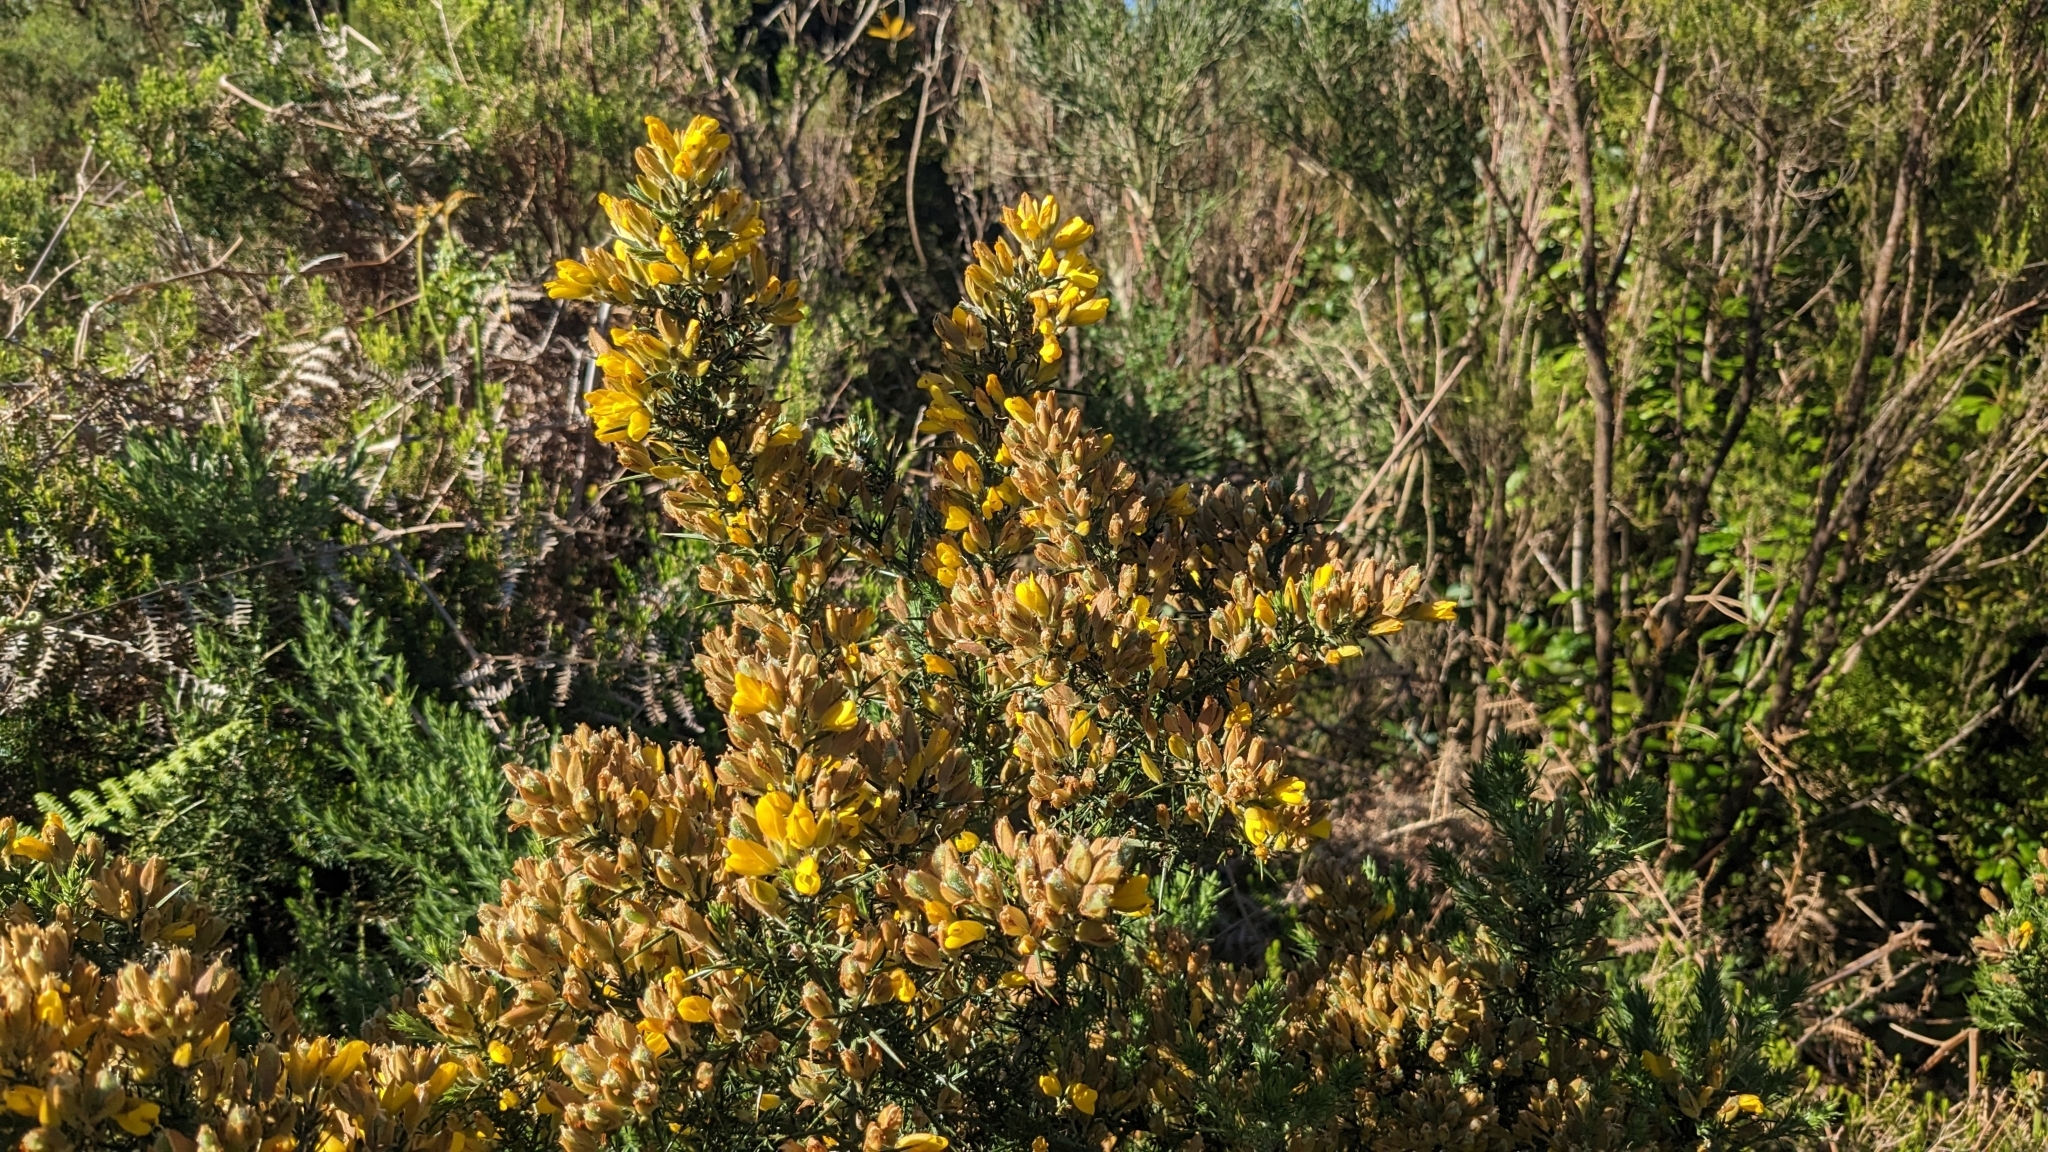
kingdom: Plantae
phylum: Tracheophyta
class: Magnoliopsida
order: Fabales
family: Fabaceae
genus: Ulex
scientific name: Ulex europaeus
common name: Common gorse
